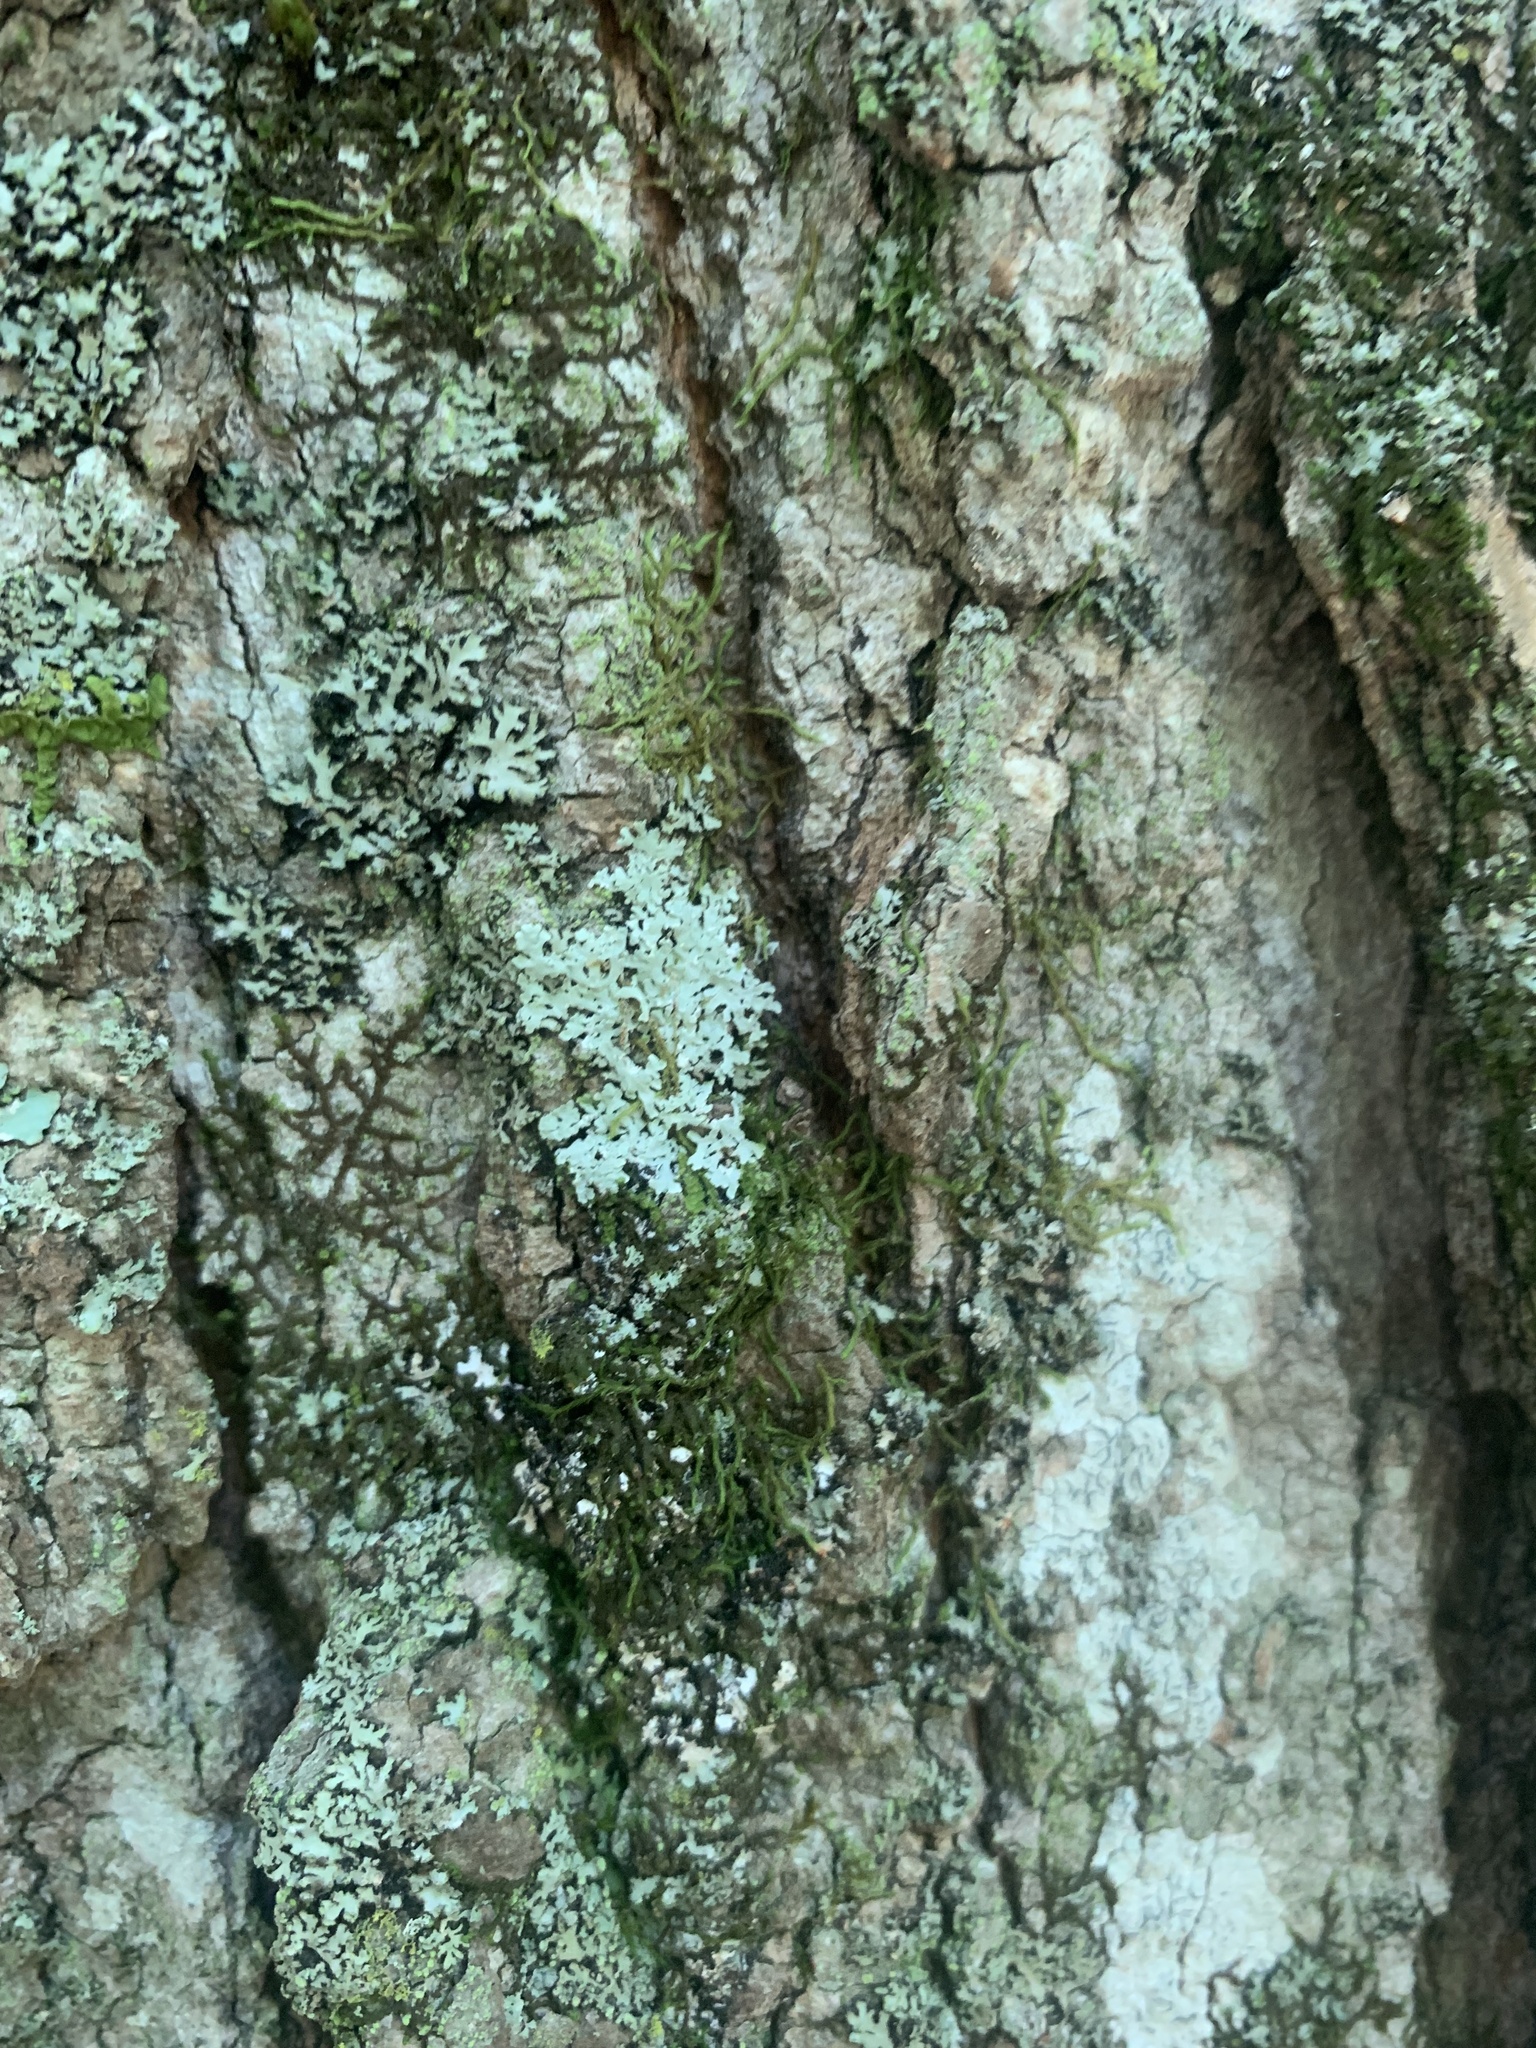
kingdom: Fungi
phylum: Ascomycota
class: Lecanoromycetes
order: Caliciales
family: Physciaceae
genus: Physcia
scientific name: Physcia americana
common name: American rosette lichen
